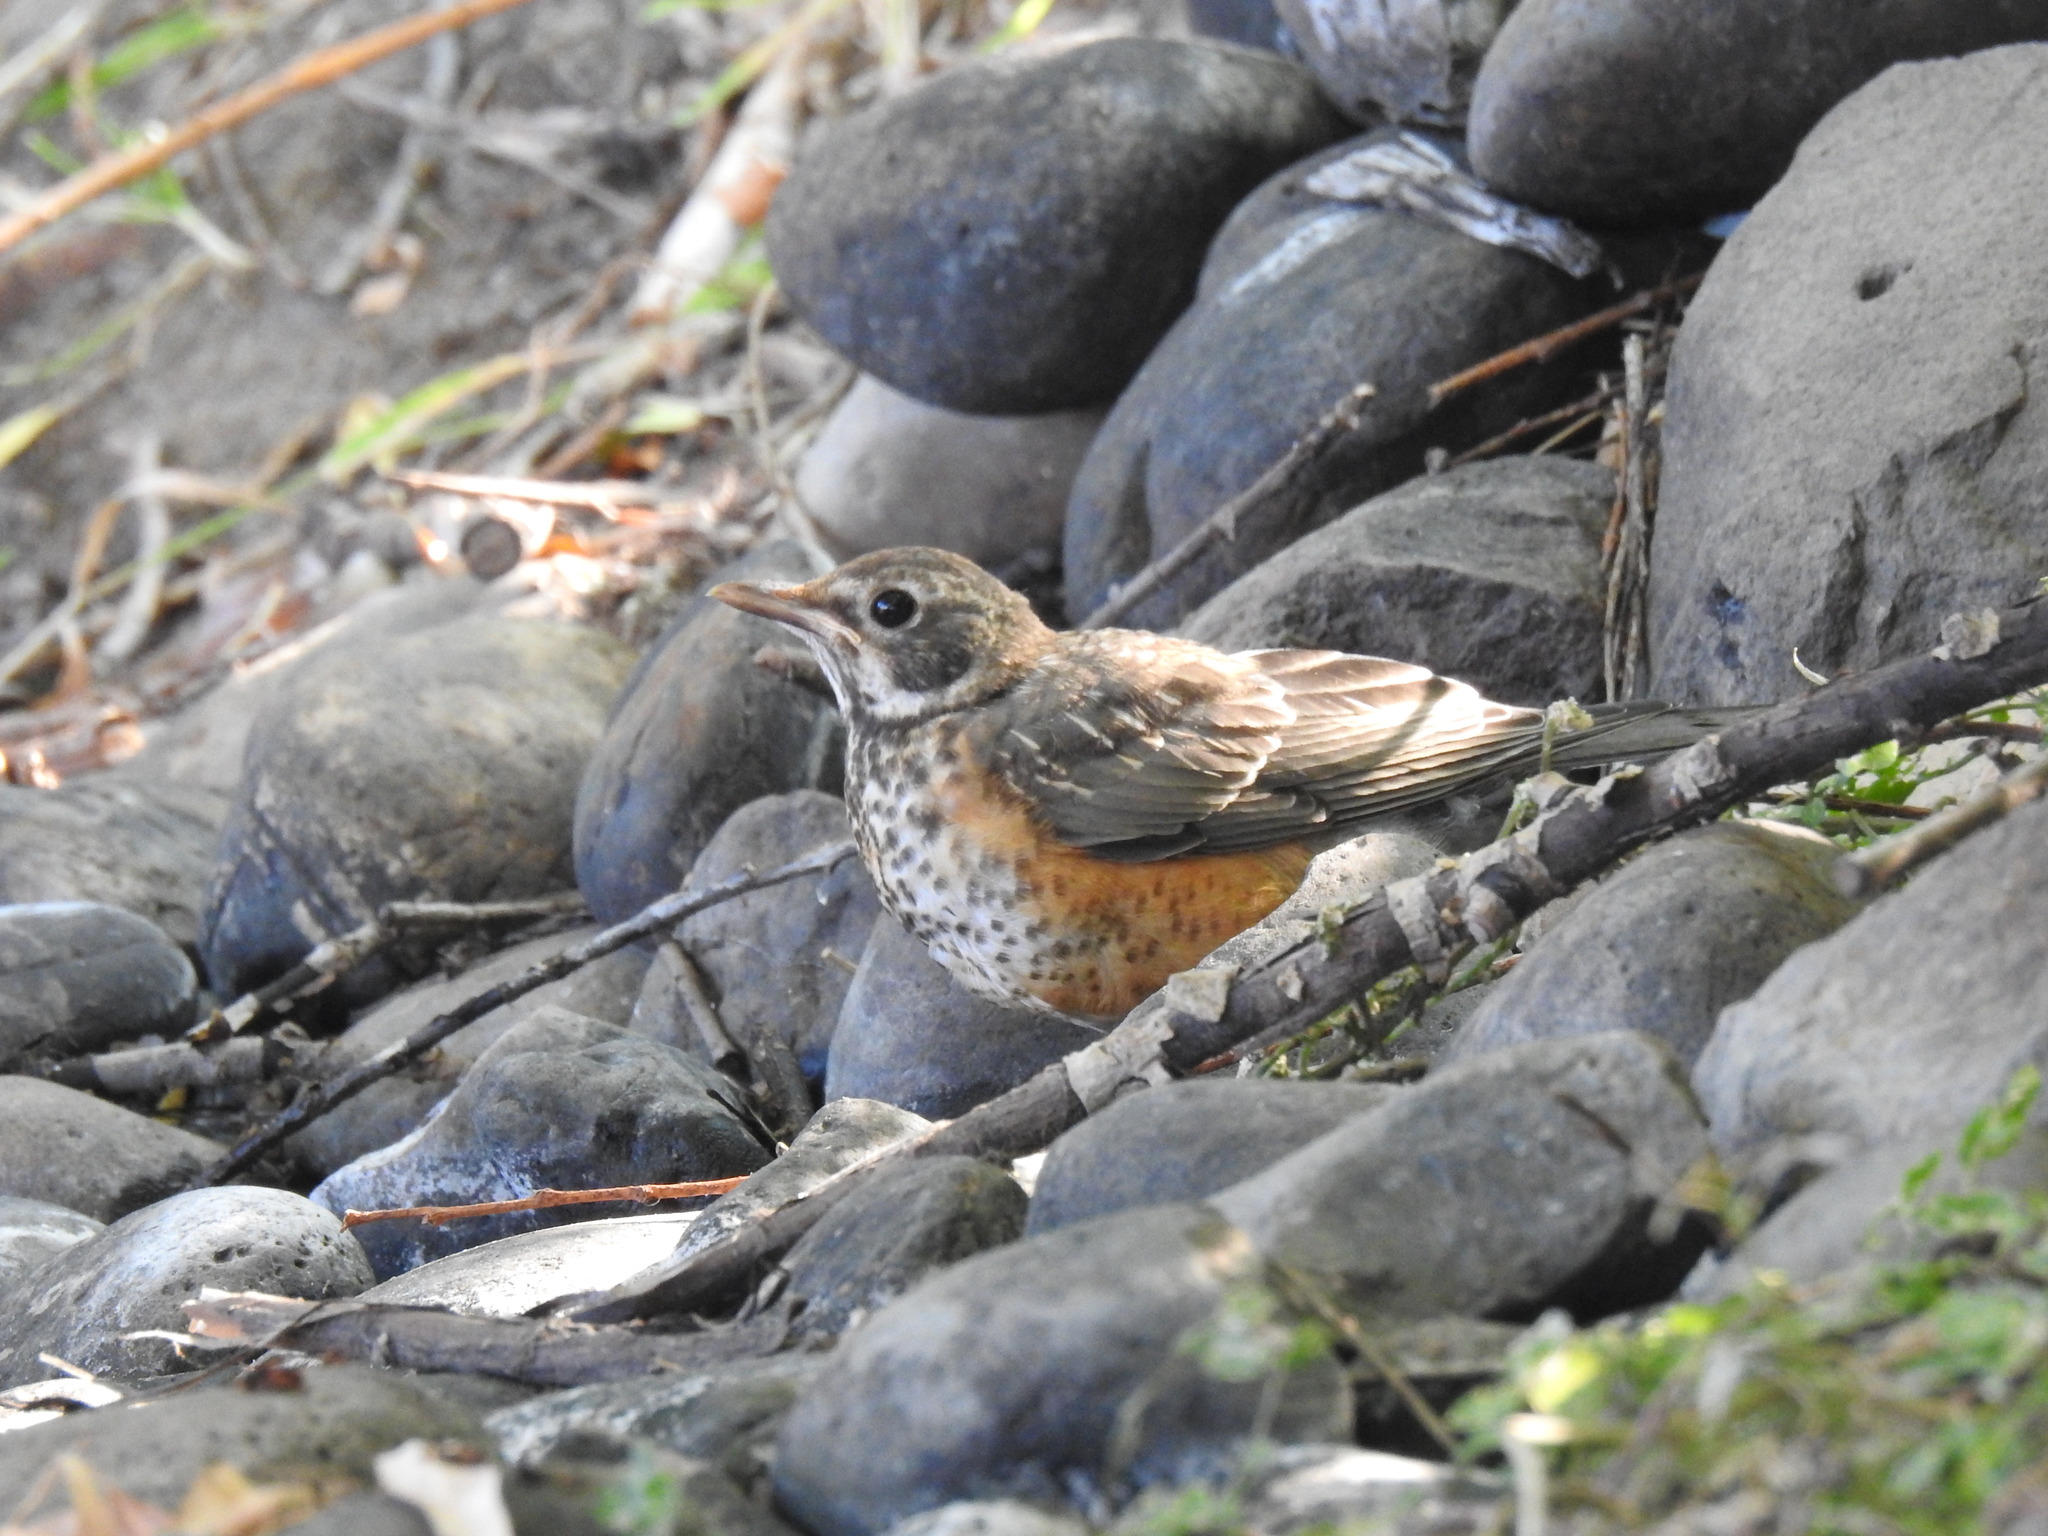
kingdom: Animalia
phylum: Chordata
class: Aves
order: Passeriformes
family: Turdidae
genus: Turdus
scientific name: Turdus migratorius
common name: American robin
